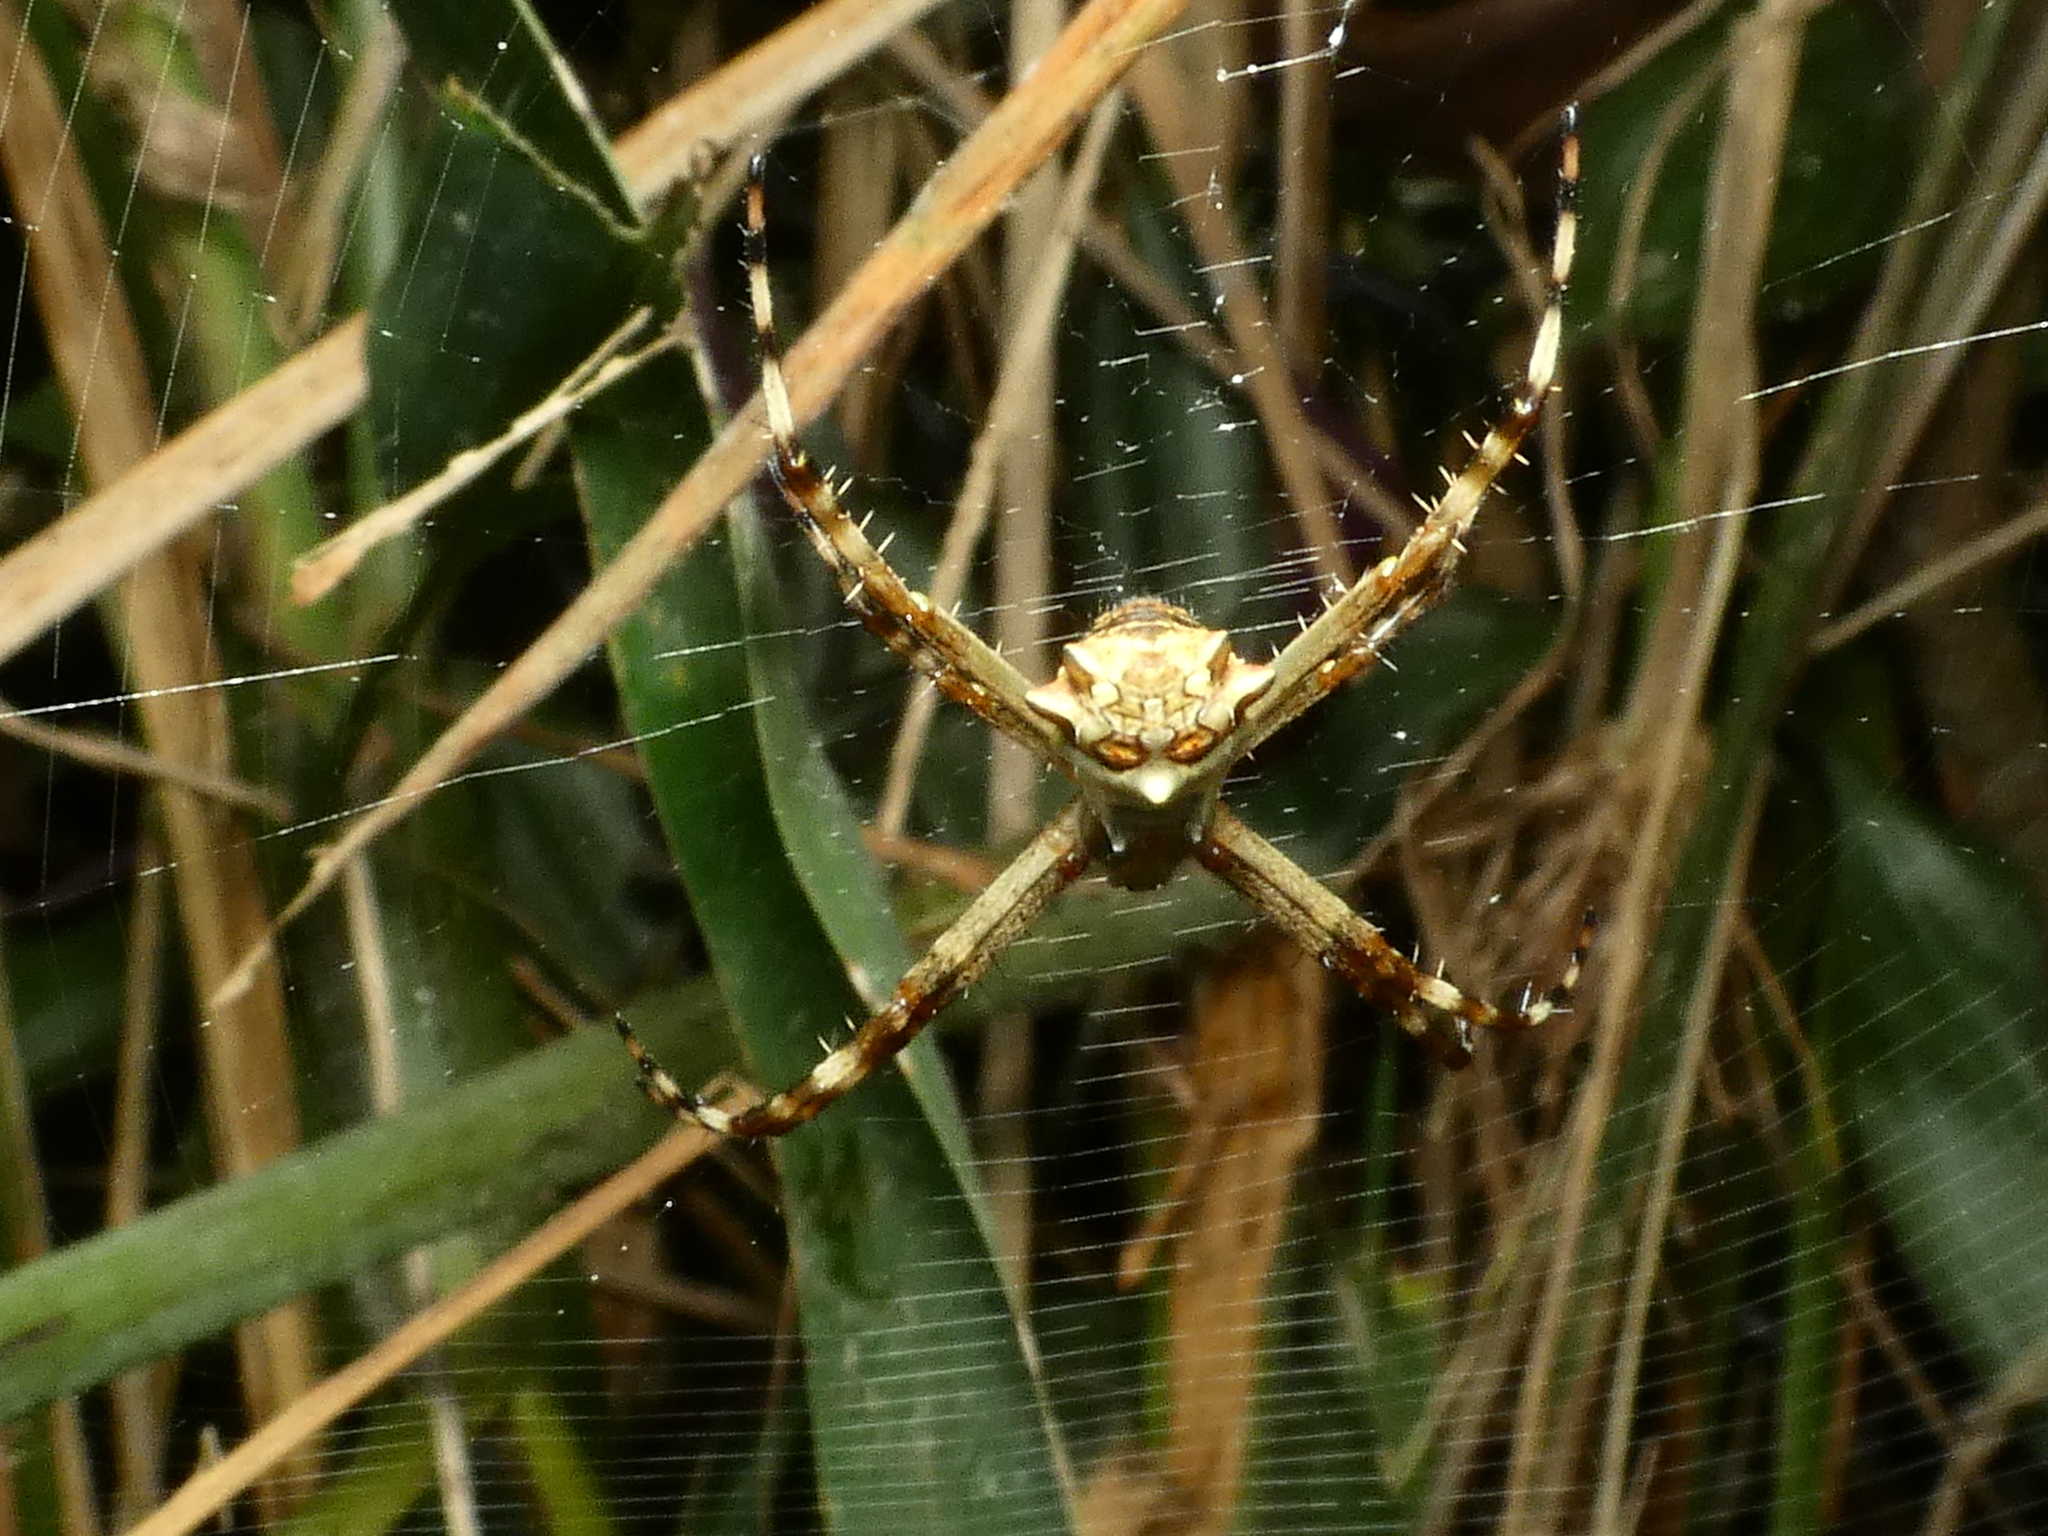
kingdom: Animalia
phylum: Arthropoda
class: Arachnida
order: Araneae
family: Araneidae
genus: Argiope
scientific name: Argiope argentata
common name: Orb weavers
